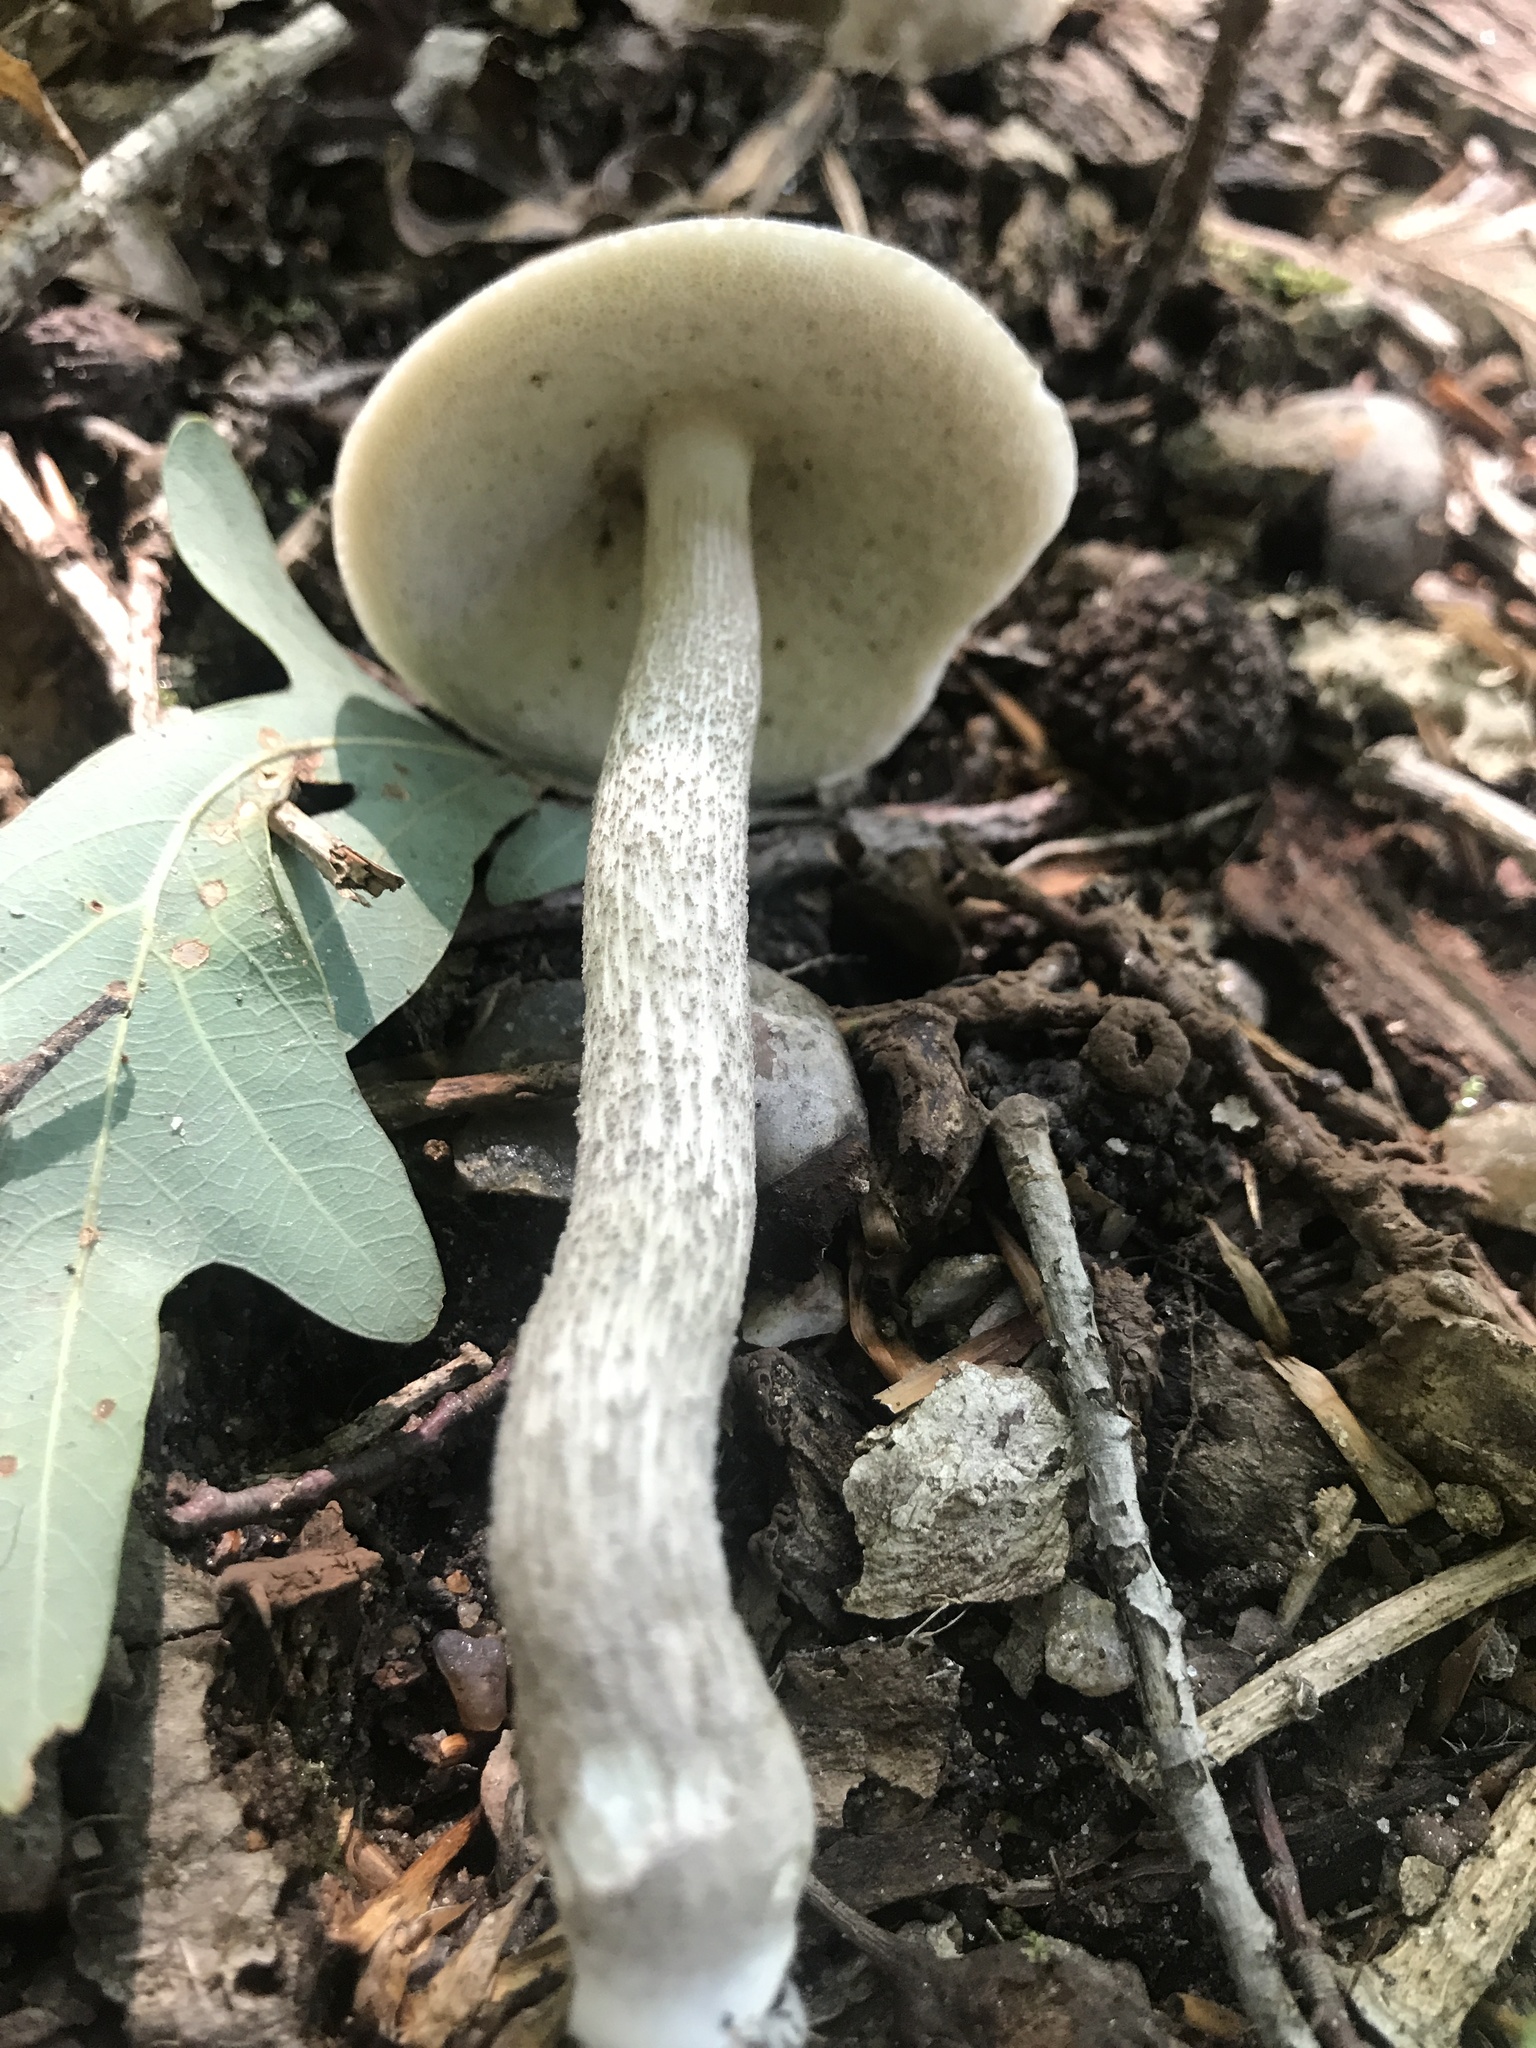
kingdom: Fungi
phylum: Basidiomycota
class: Agaricomycetes
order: Boletales
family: Boletaceae
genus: Leccinellum
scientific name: Leccinellum albellum
